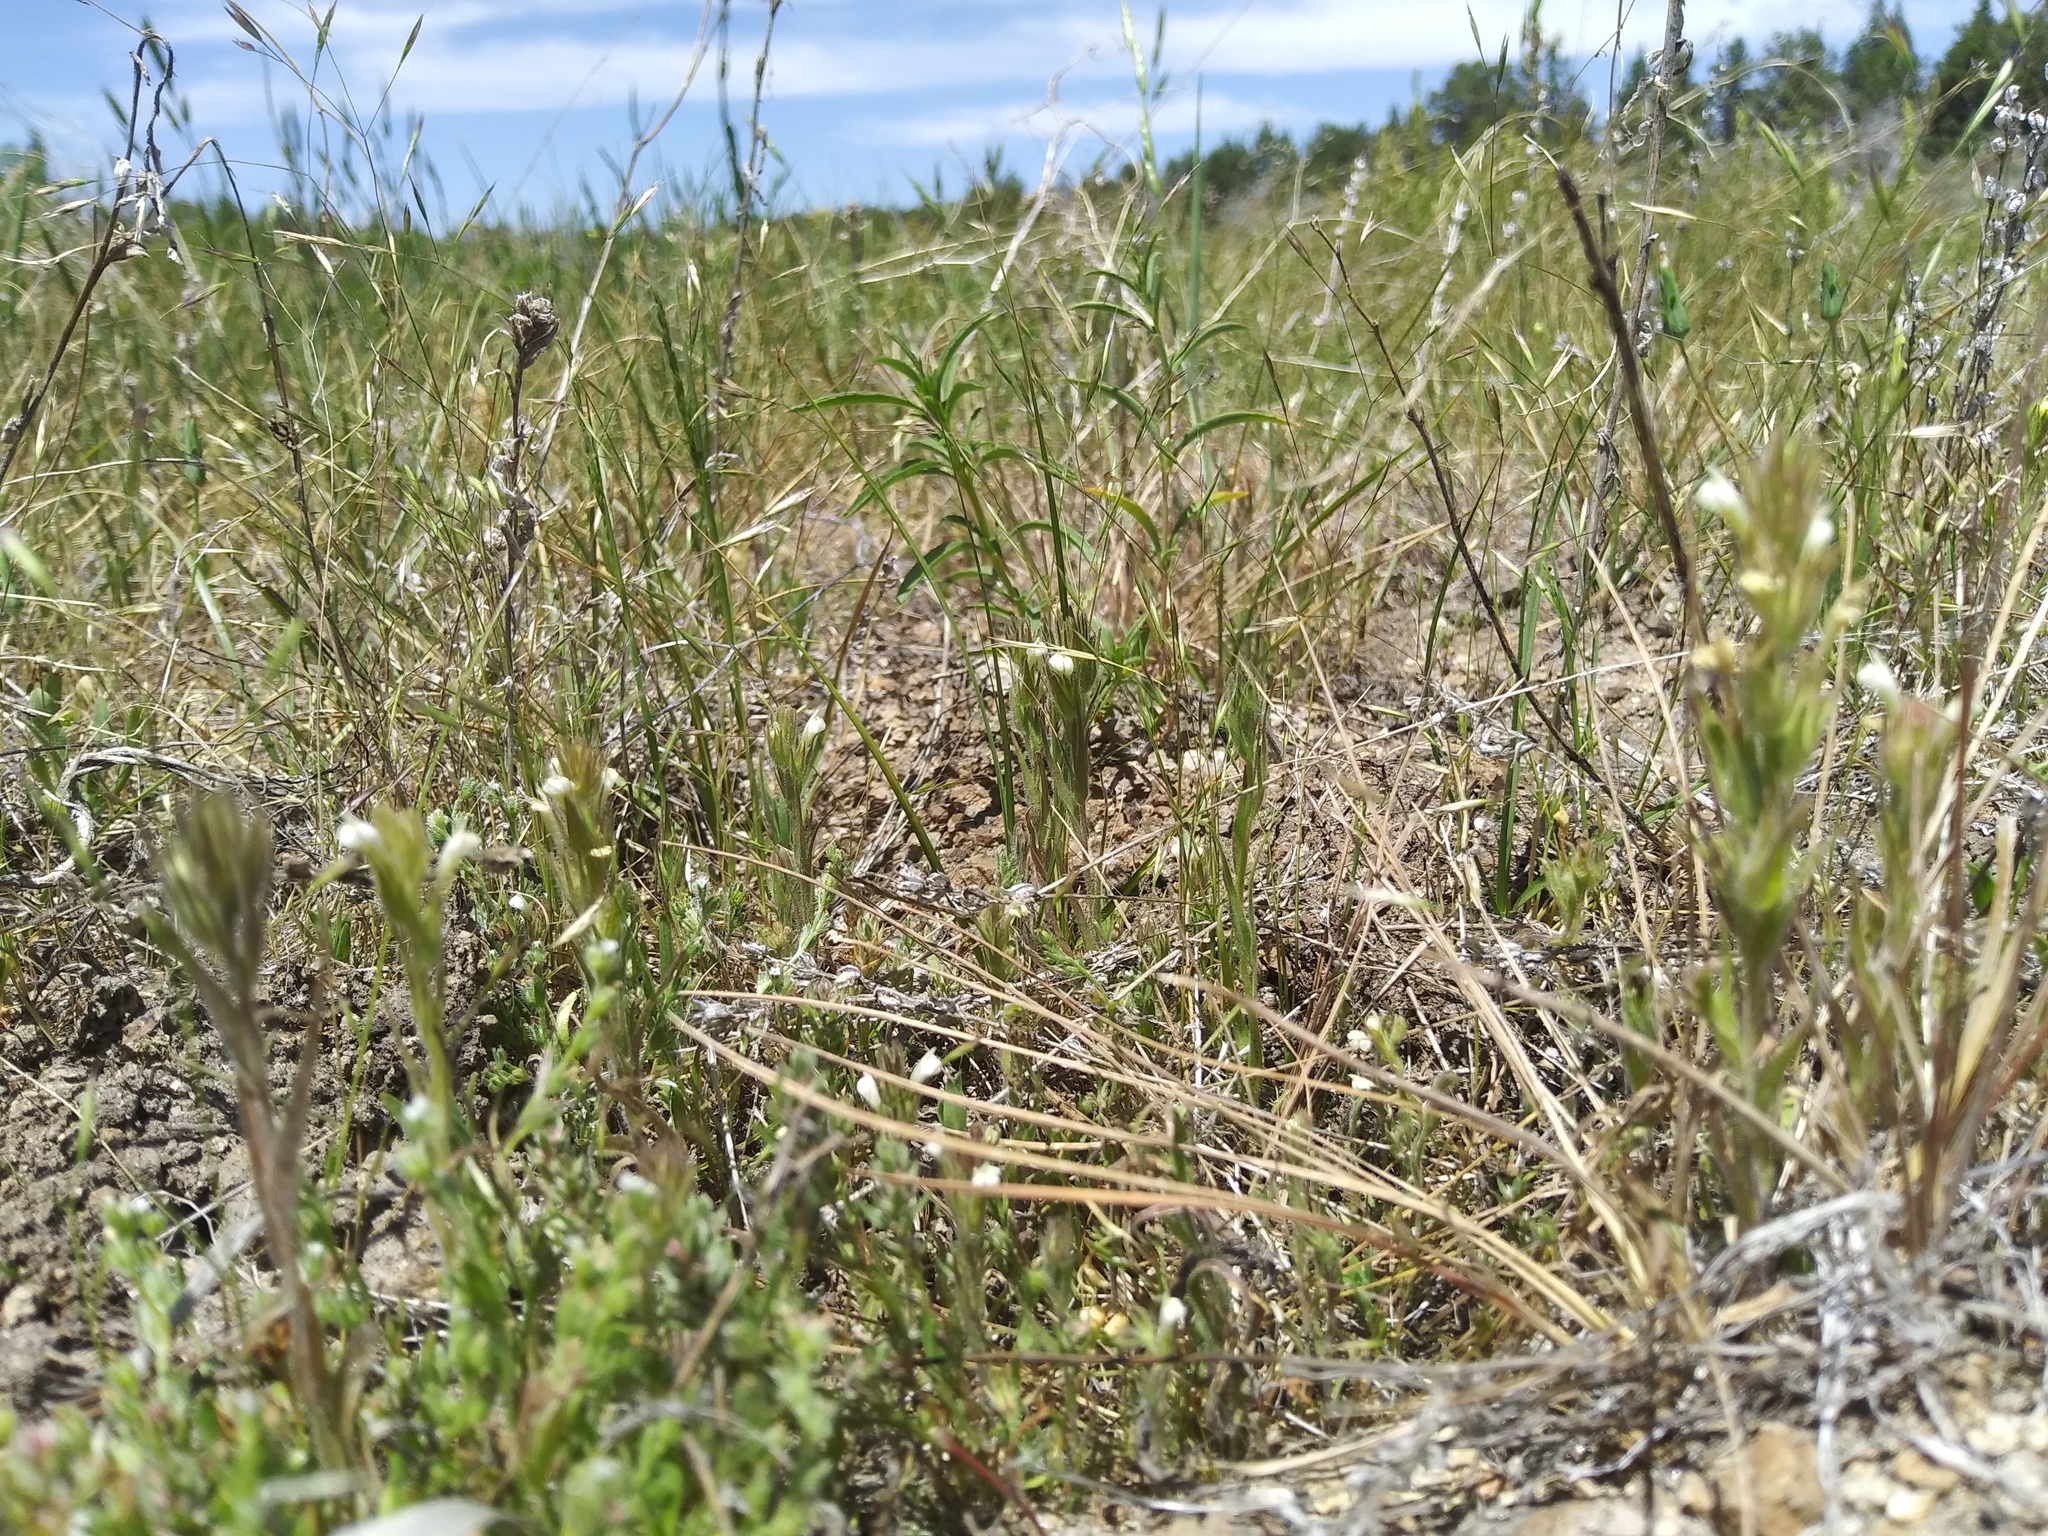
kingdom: Plantae
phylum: Tracheophyta
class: Magnoliopsida
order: Lamiales
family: Orobanchaceae
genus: Castilleja
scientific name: Castilleja tenuis
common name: Hairy indian paintbrush
